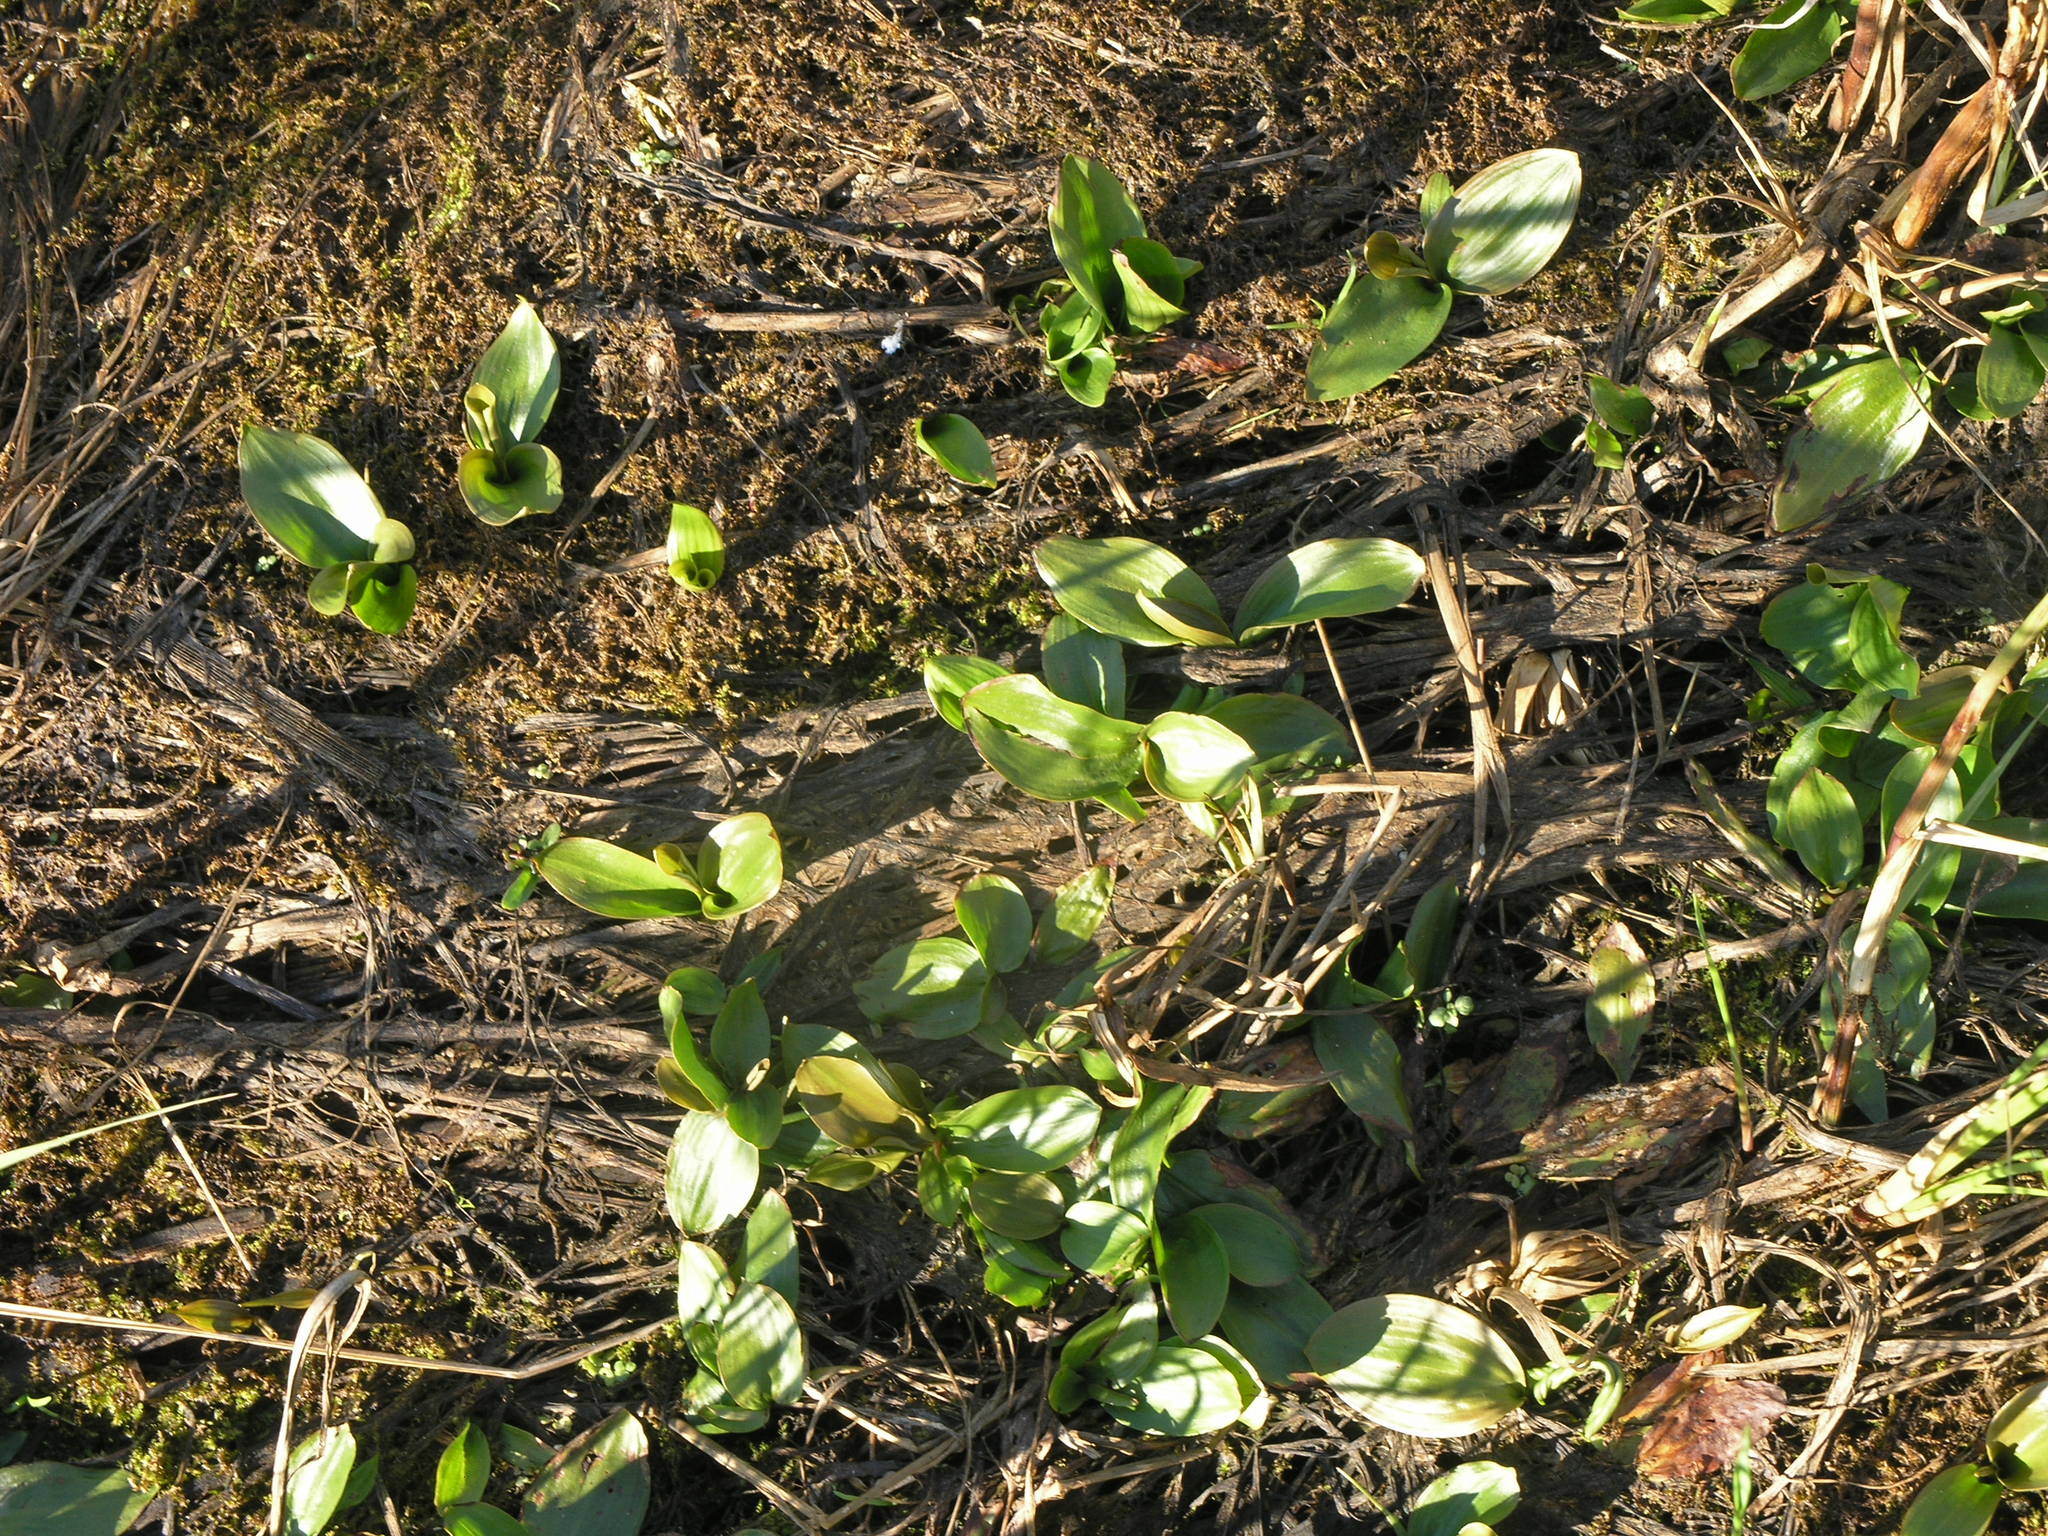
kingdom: Plantae
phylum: Tracheophyta
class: Liliopsida
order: Alismatales
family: Potamogetonaceae
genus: Potamogeton
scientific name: Potamogeton gramineus
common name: Various-leaved pondweed
